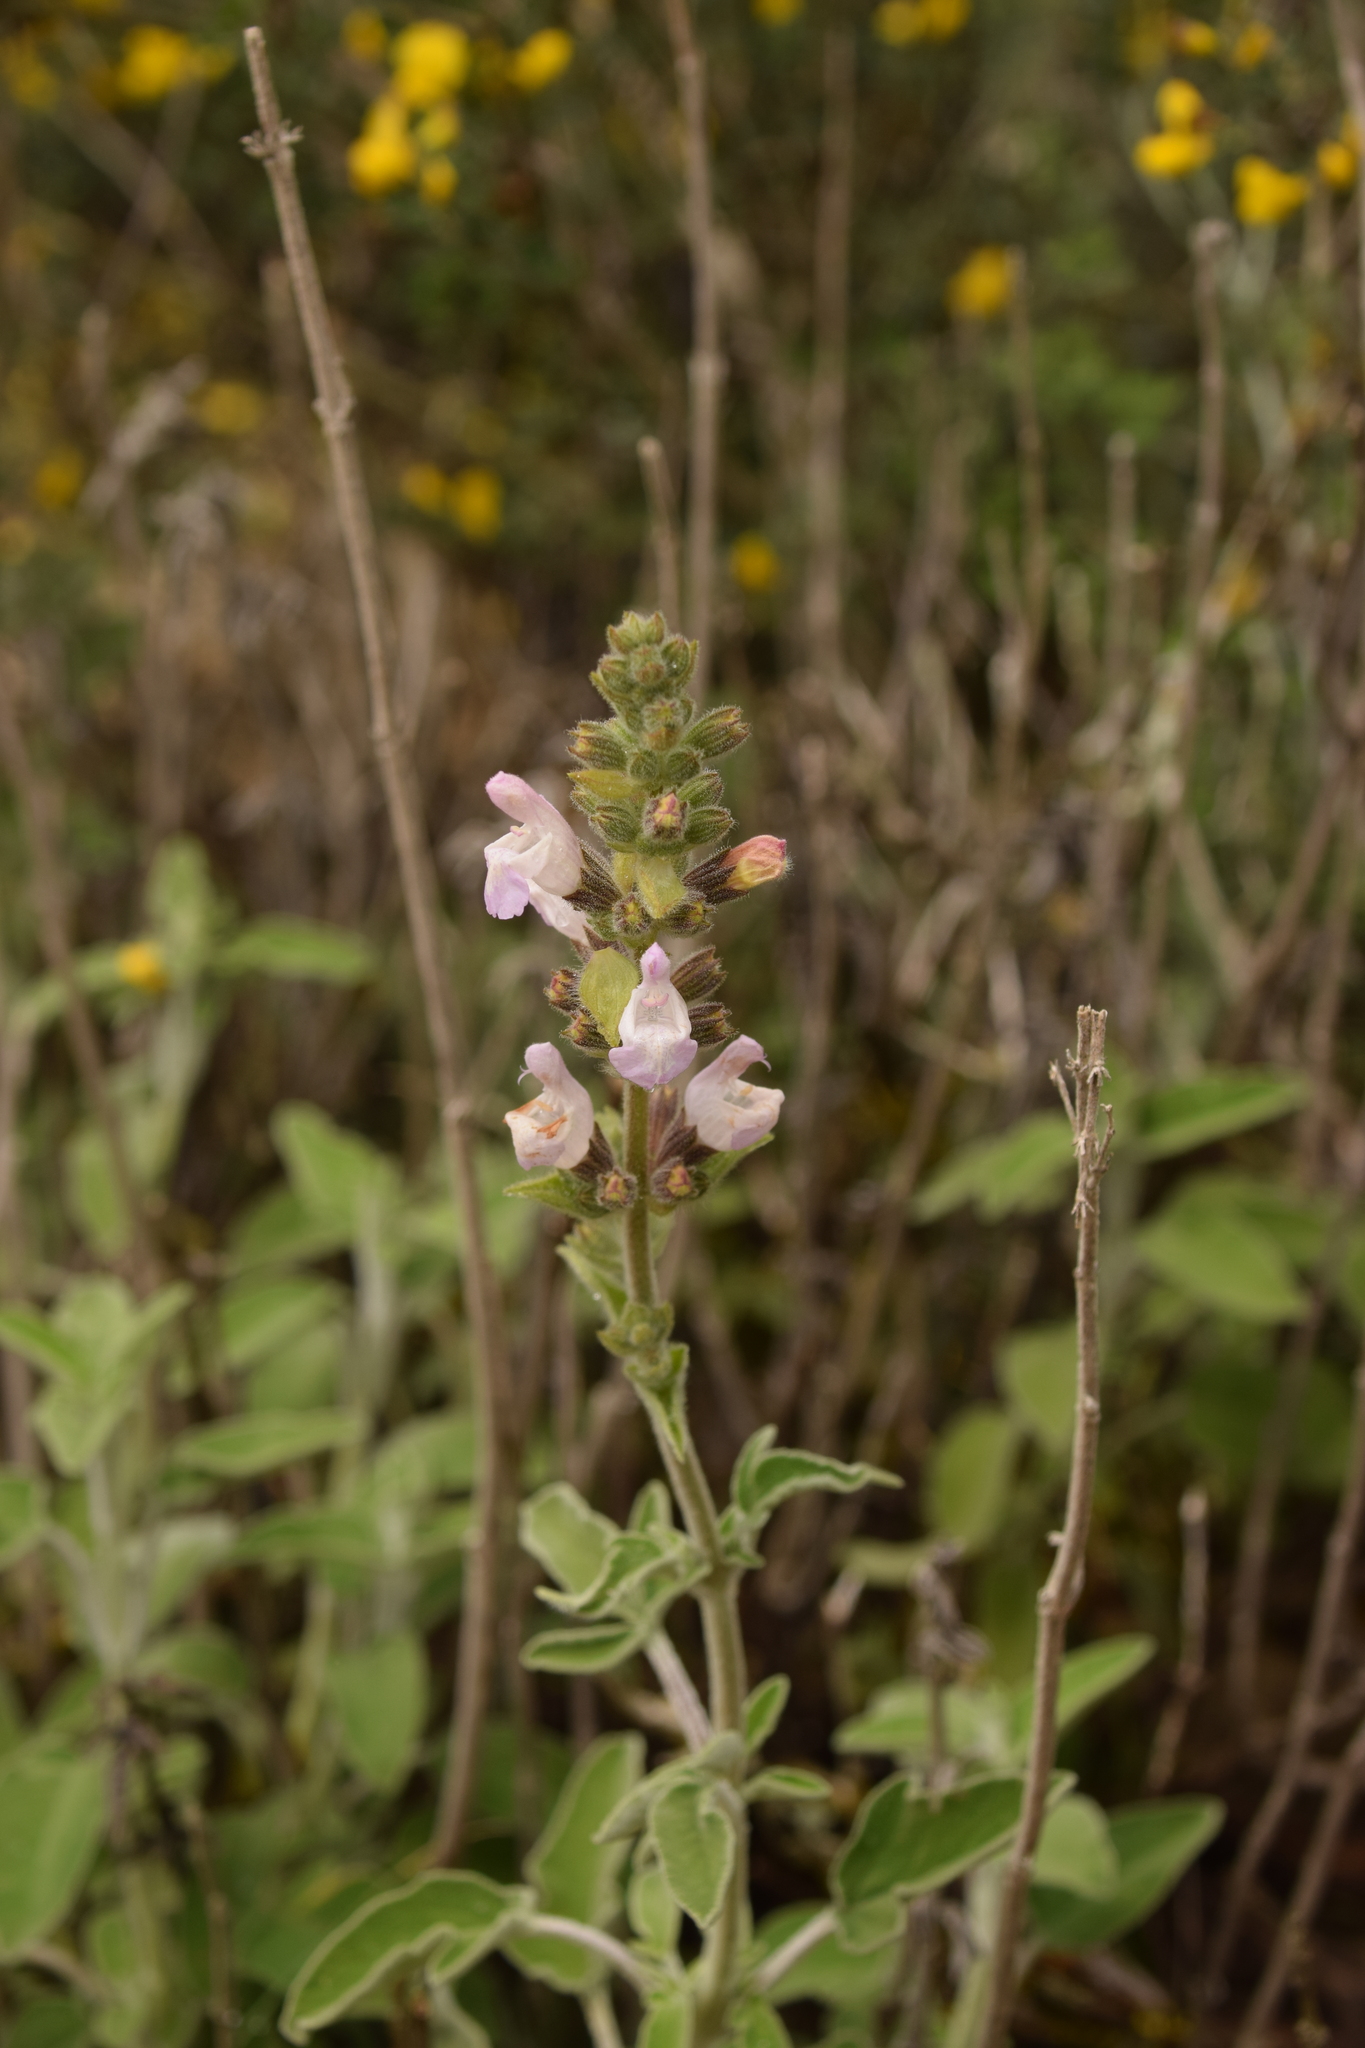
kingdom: Plantae
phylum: Tracheophyta
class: Magnoliopsida
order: Lamiales
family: Lamiaceae
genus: Salvia
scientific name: Salvia fruticosa
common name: Greek sage
